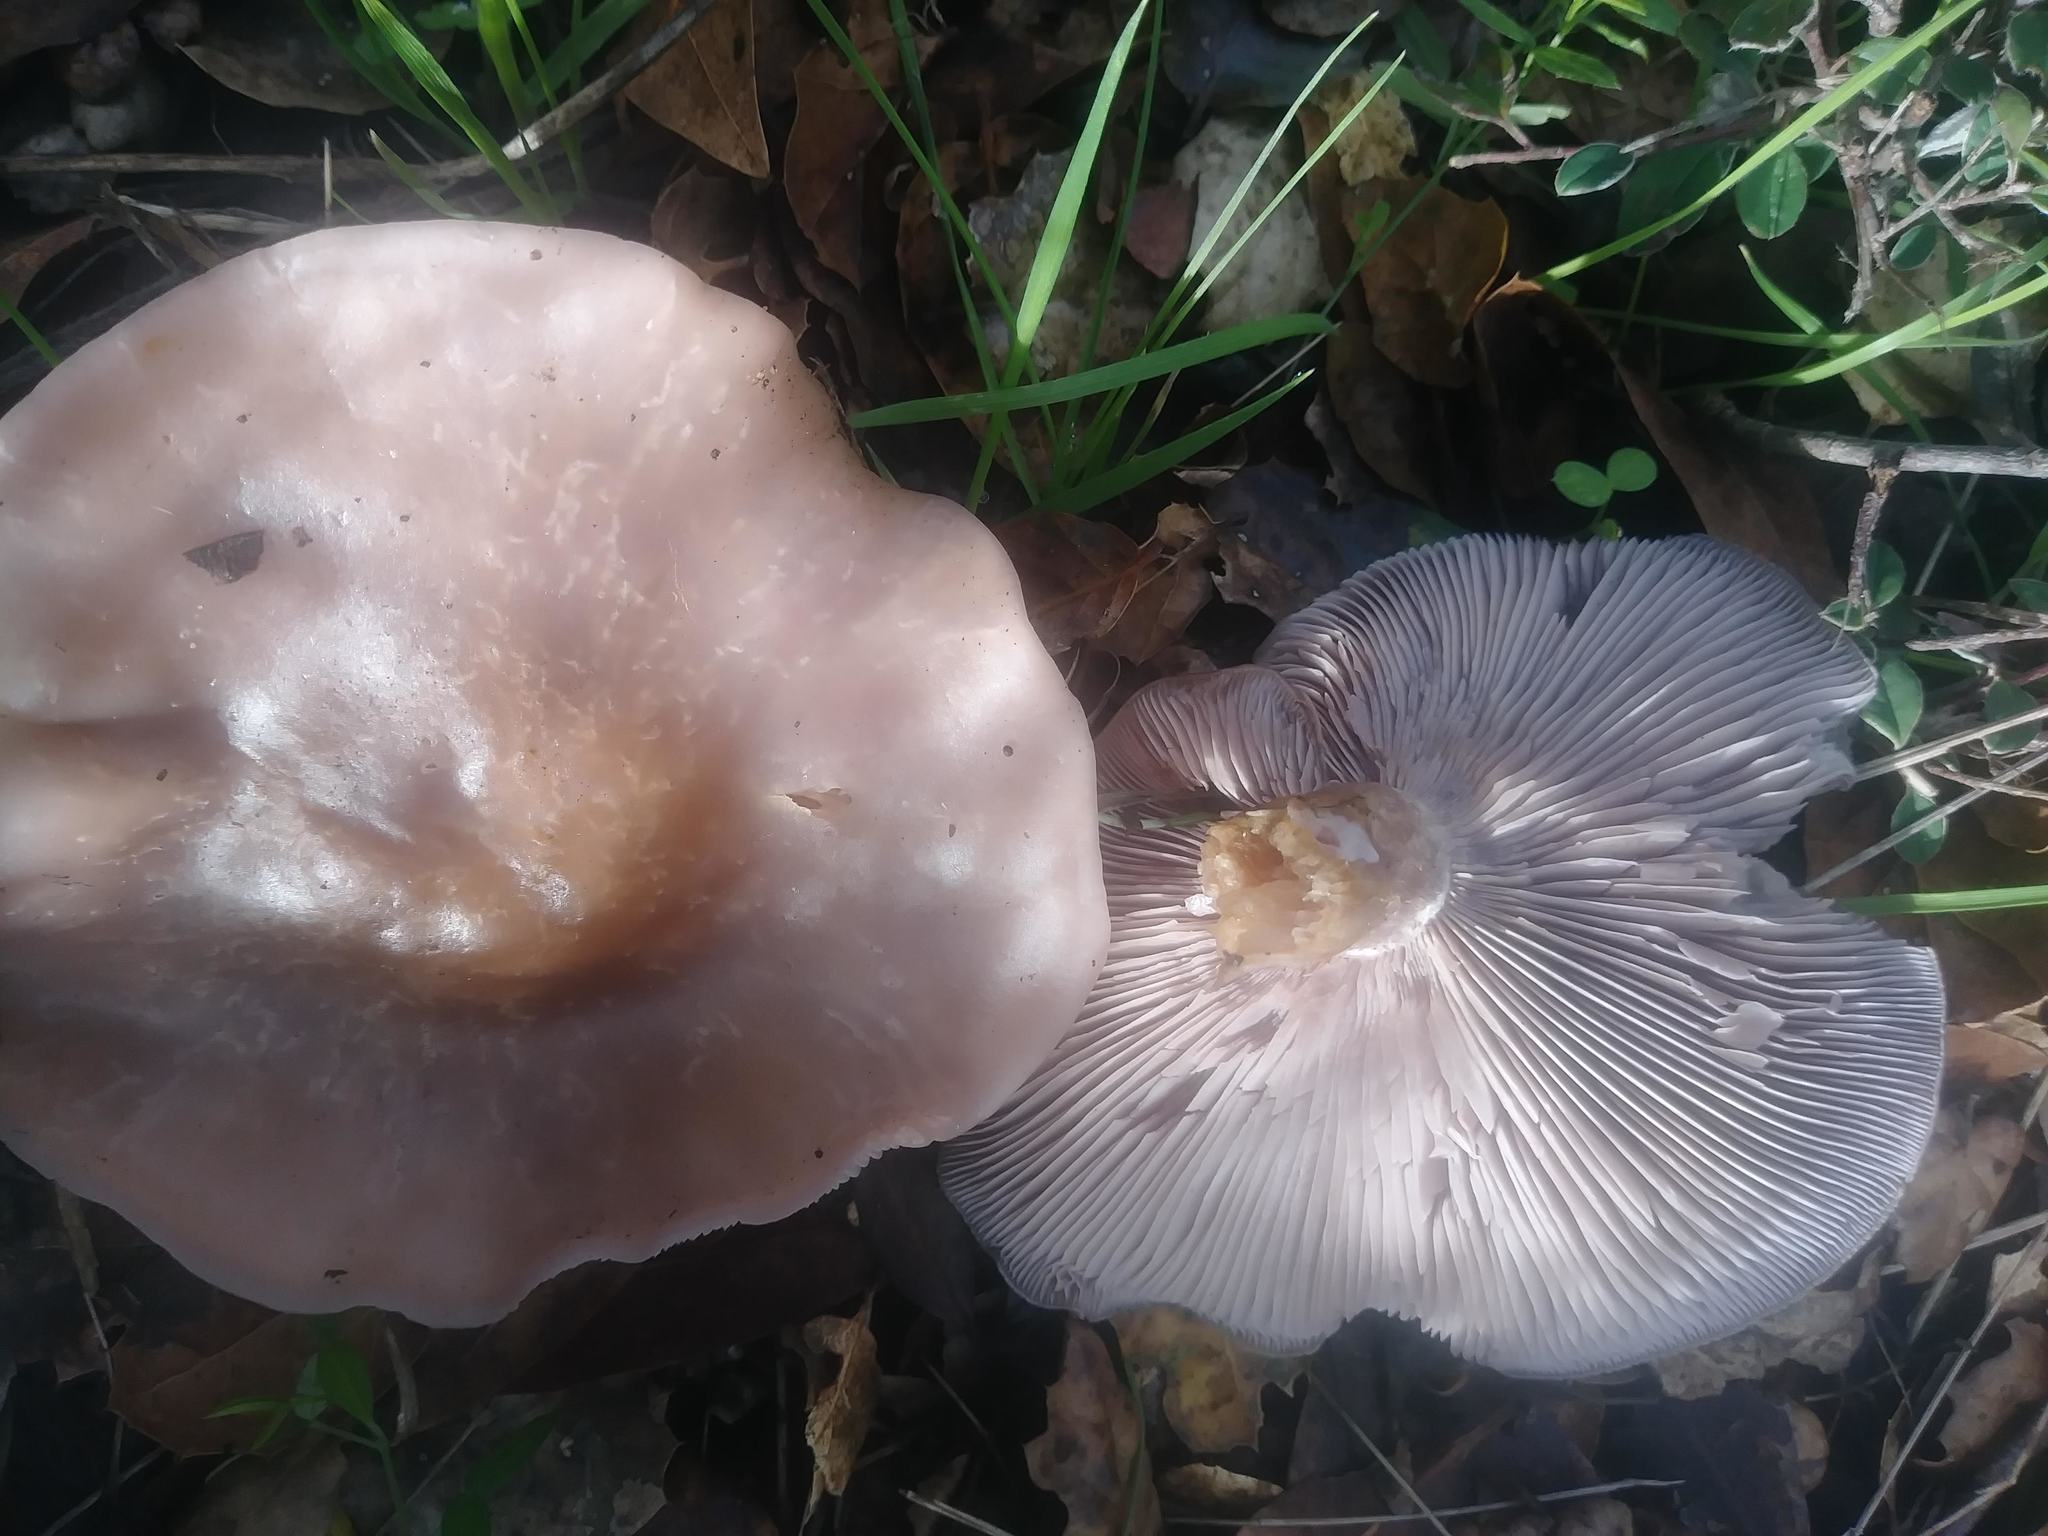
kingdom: Fungi
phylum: Basidiomycota
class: Agaricomycetes
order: Agaricales
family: Tricholomataceae
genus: Collybia
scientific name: Collybia
